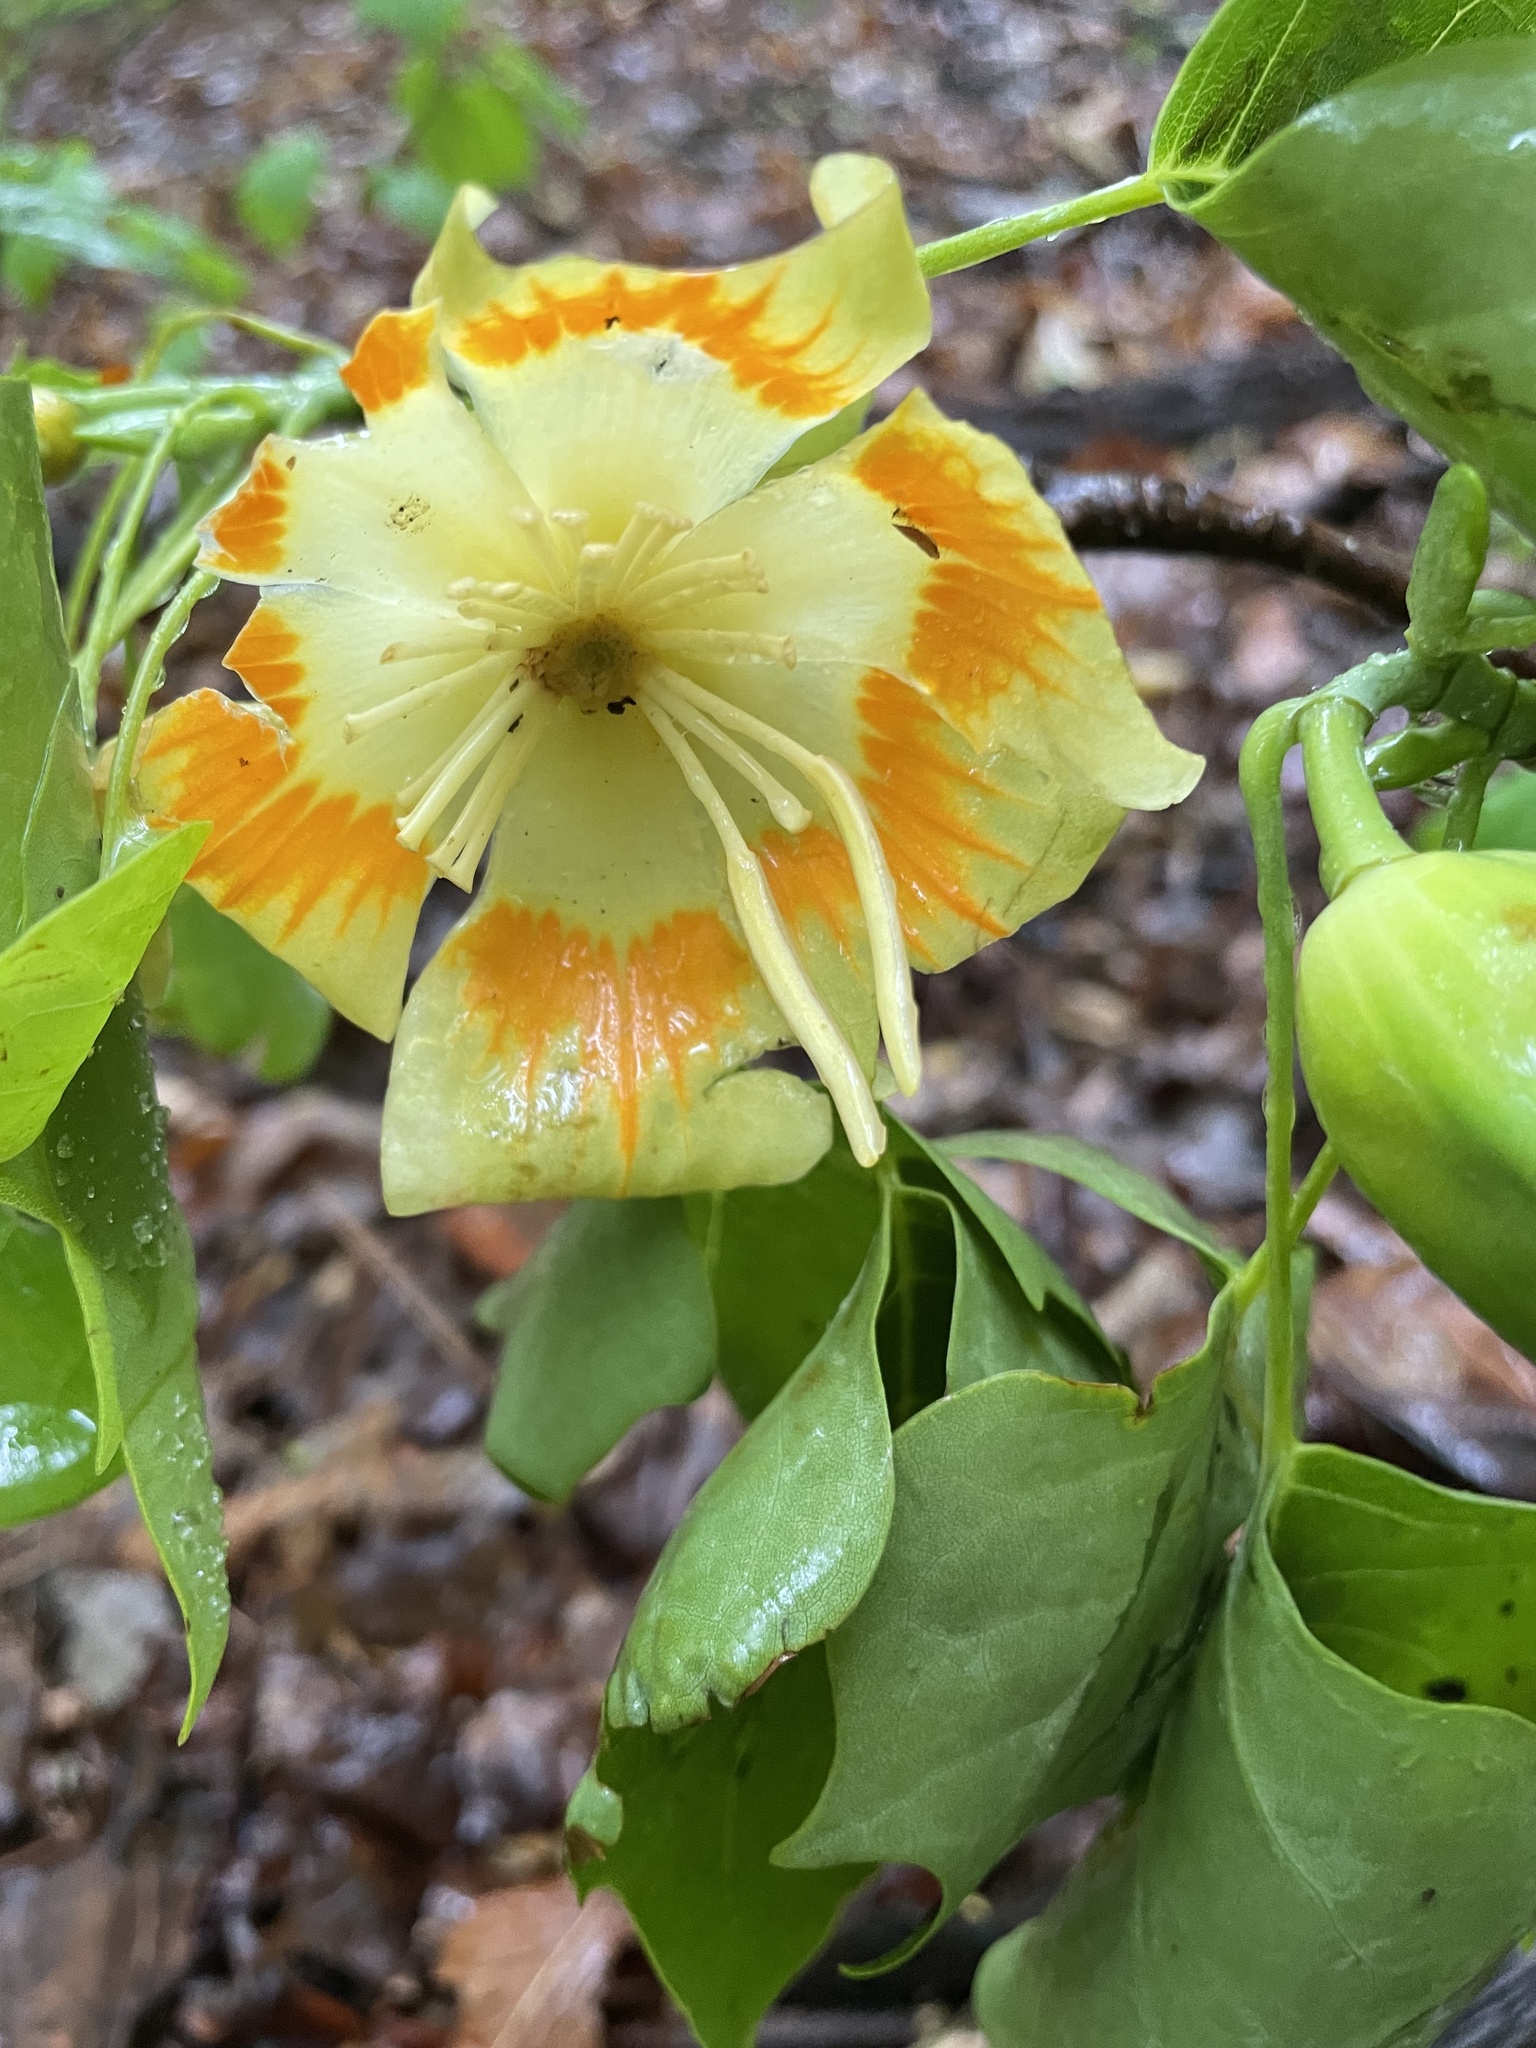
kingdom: Plantae
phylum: Tracheophyta
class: Magnoliopsida
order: Magnoliales
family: Magnoliaceae
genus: Liriodendron
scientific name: Liriodendron tulipifera
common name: Tulip tree
